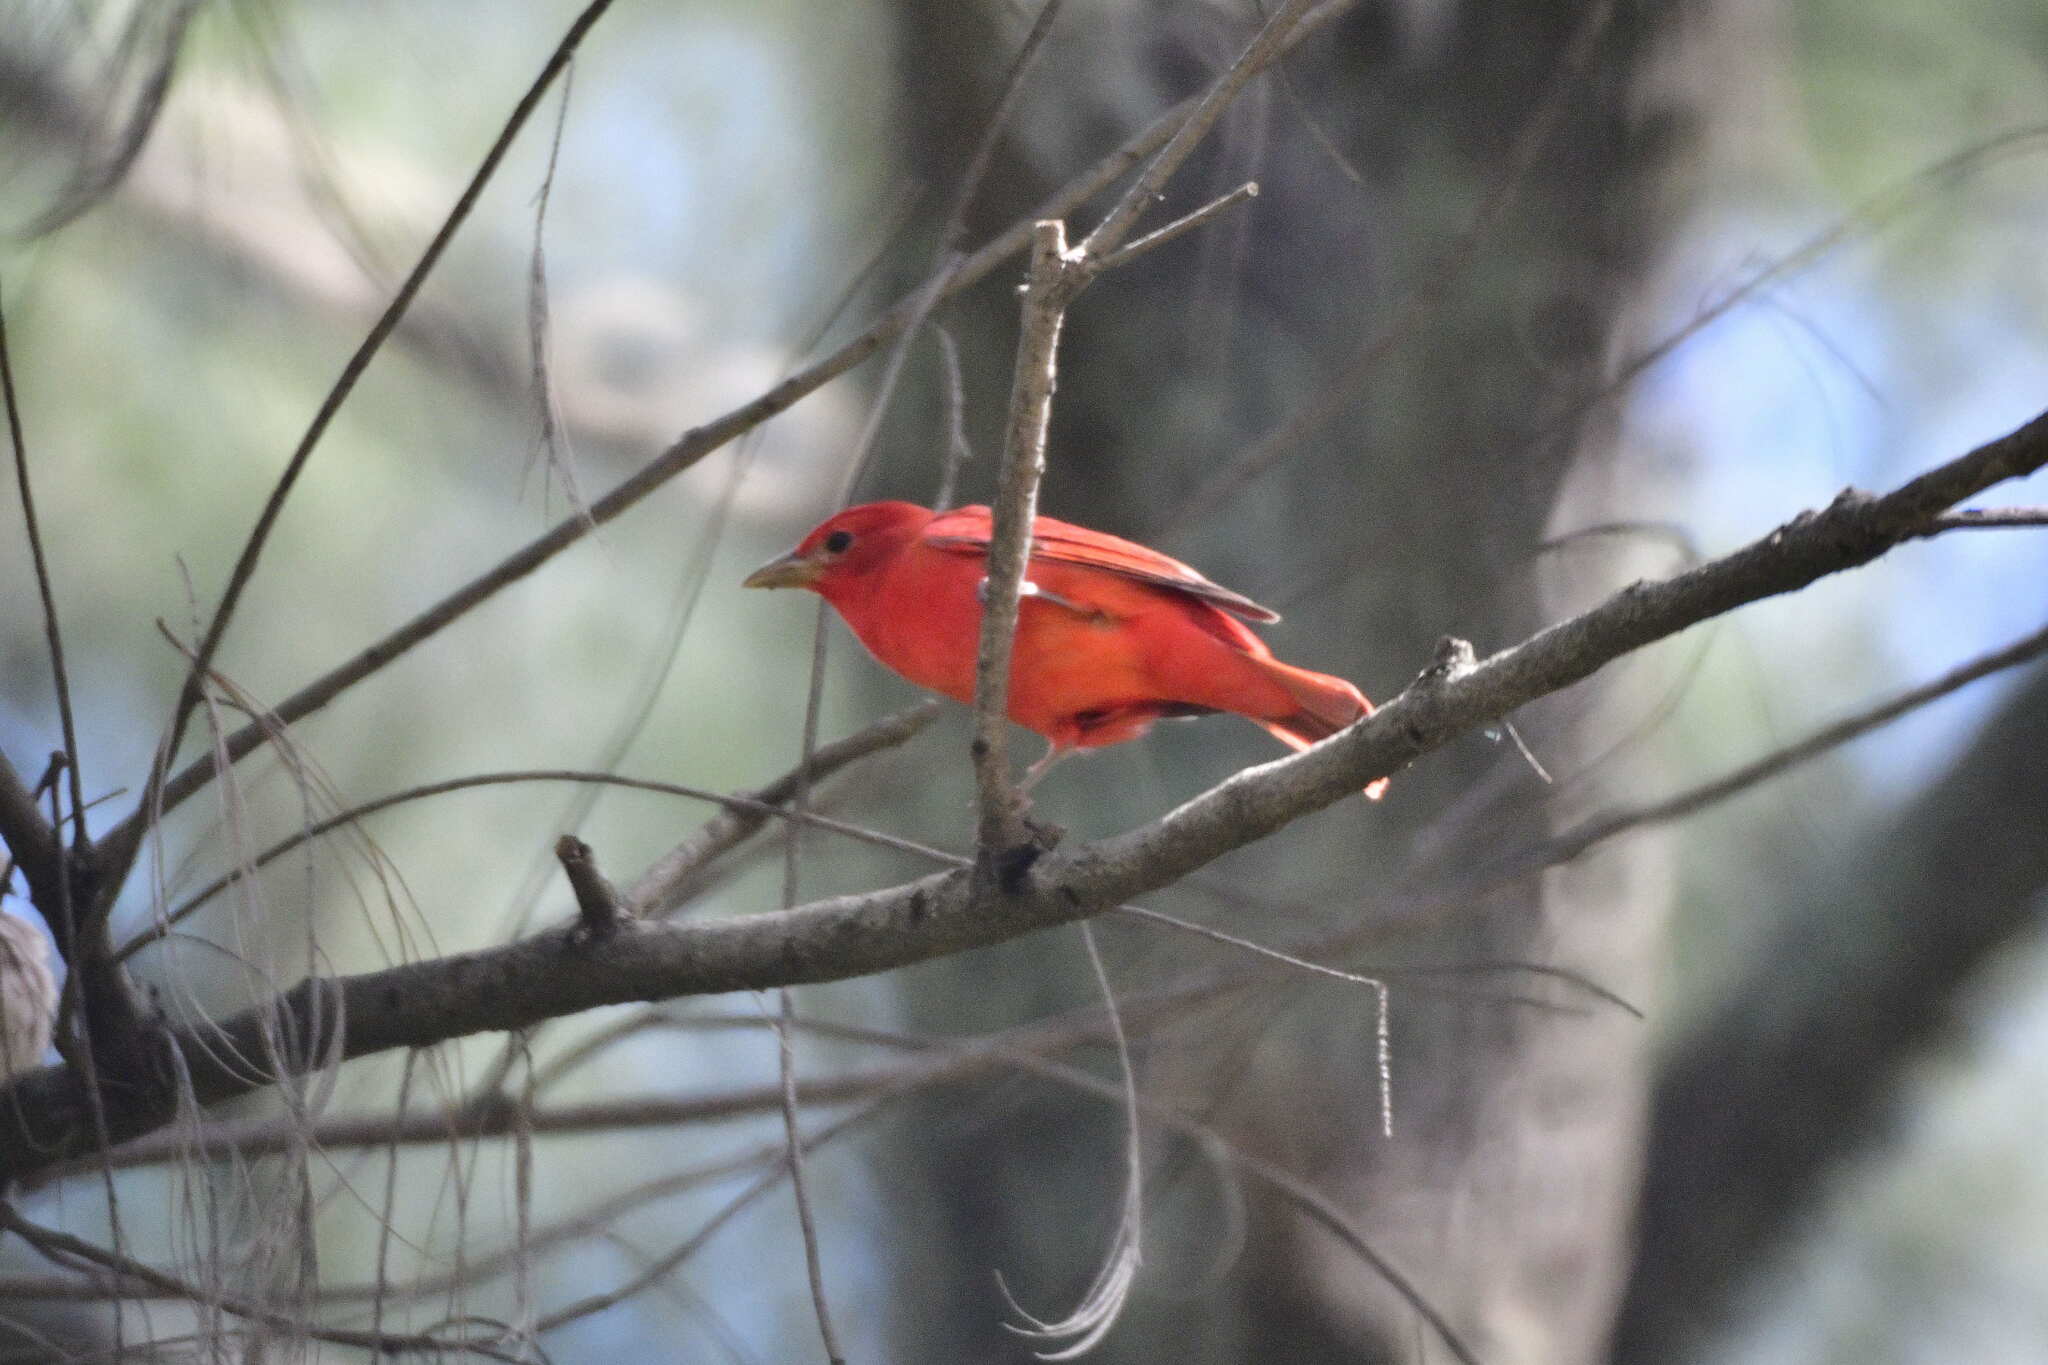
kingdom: Animalia
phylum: Chordata
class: Aves
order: Passeriformes
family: Cardinalidae
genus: Piranga
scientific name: Piranga rubra
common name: Summer tanager
